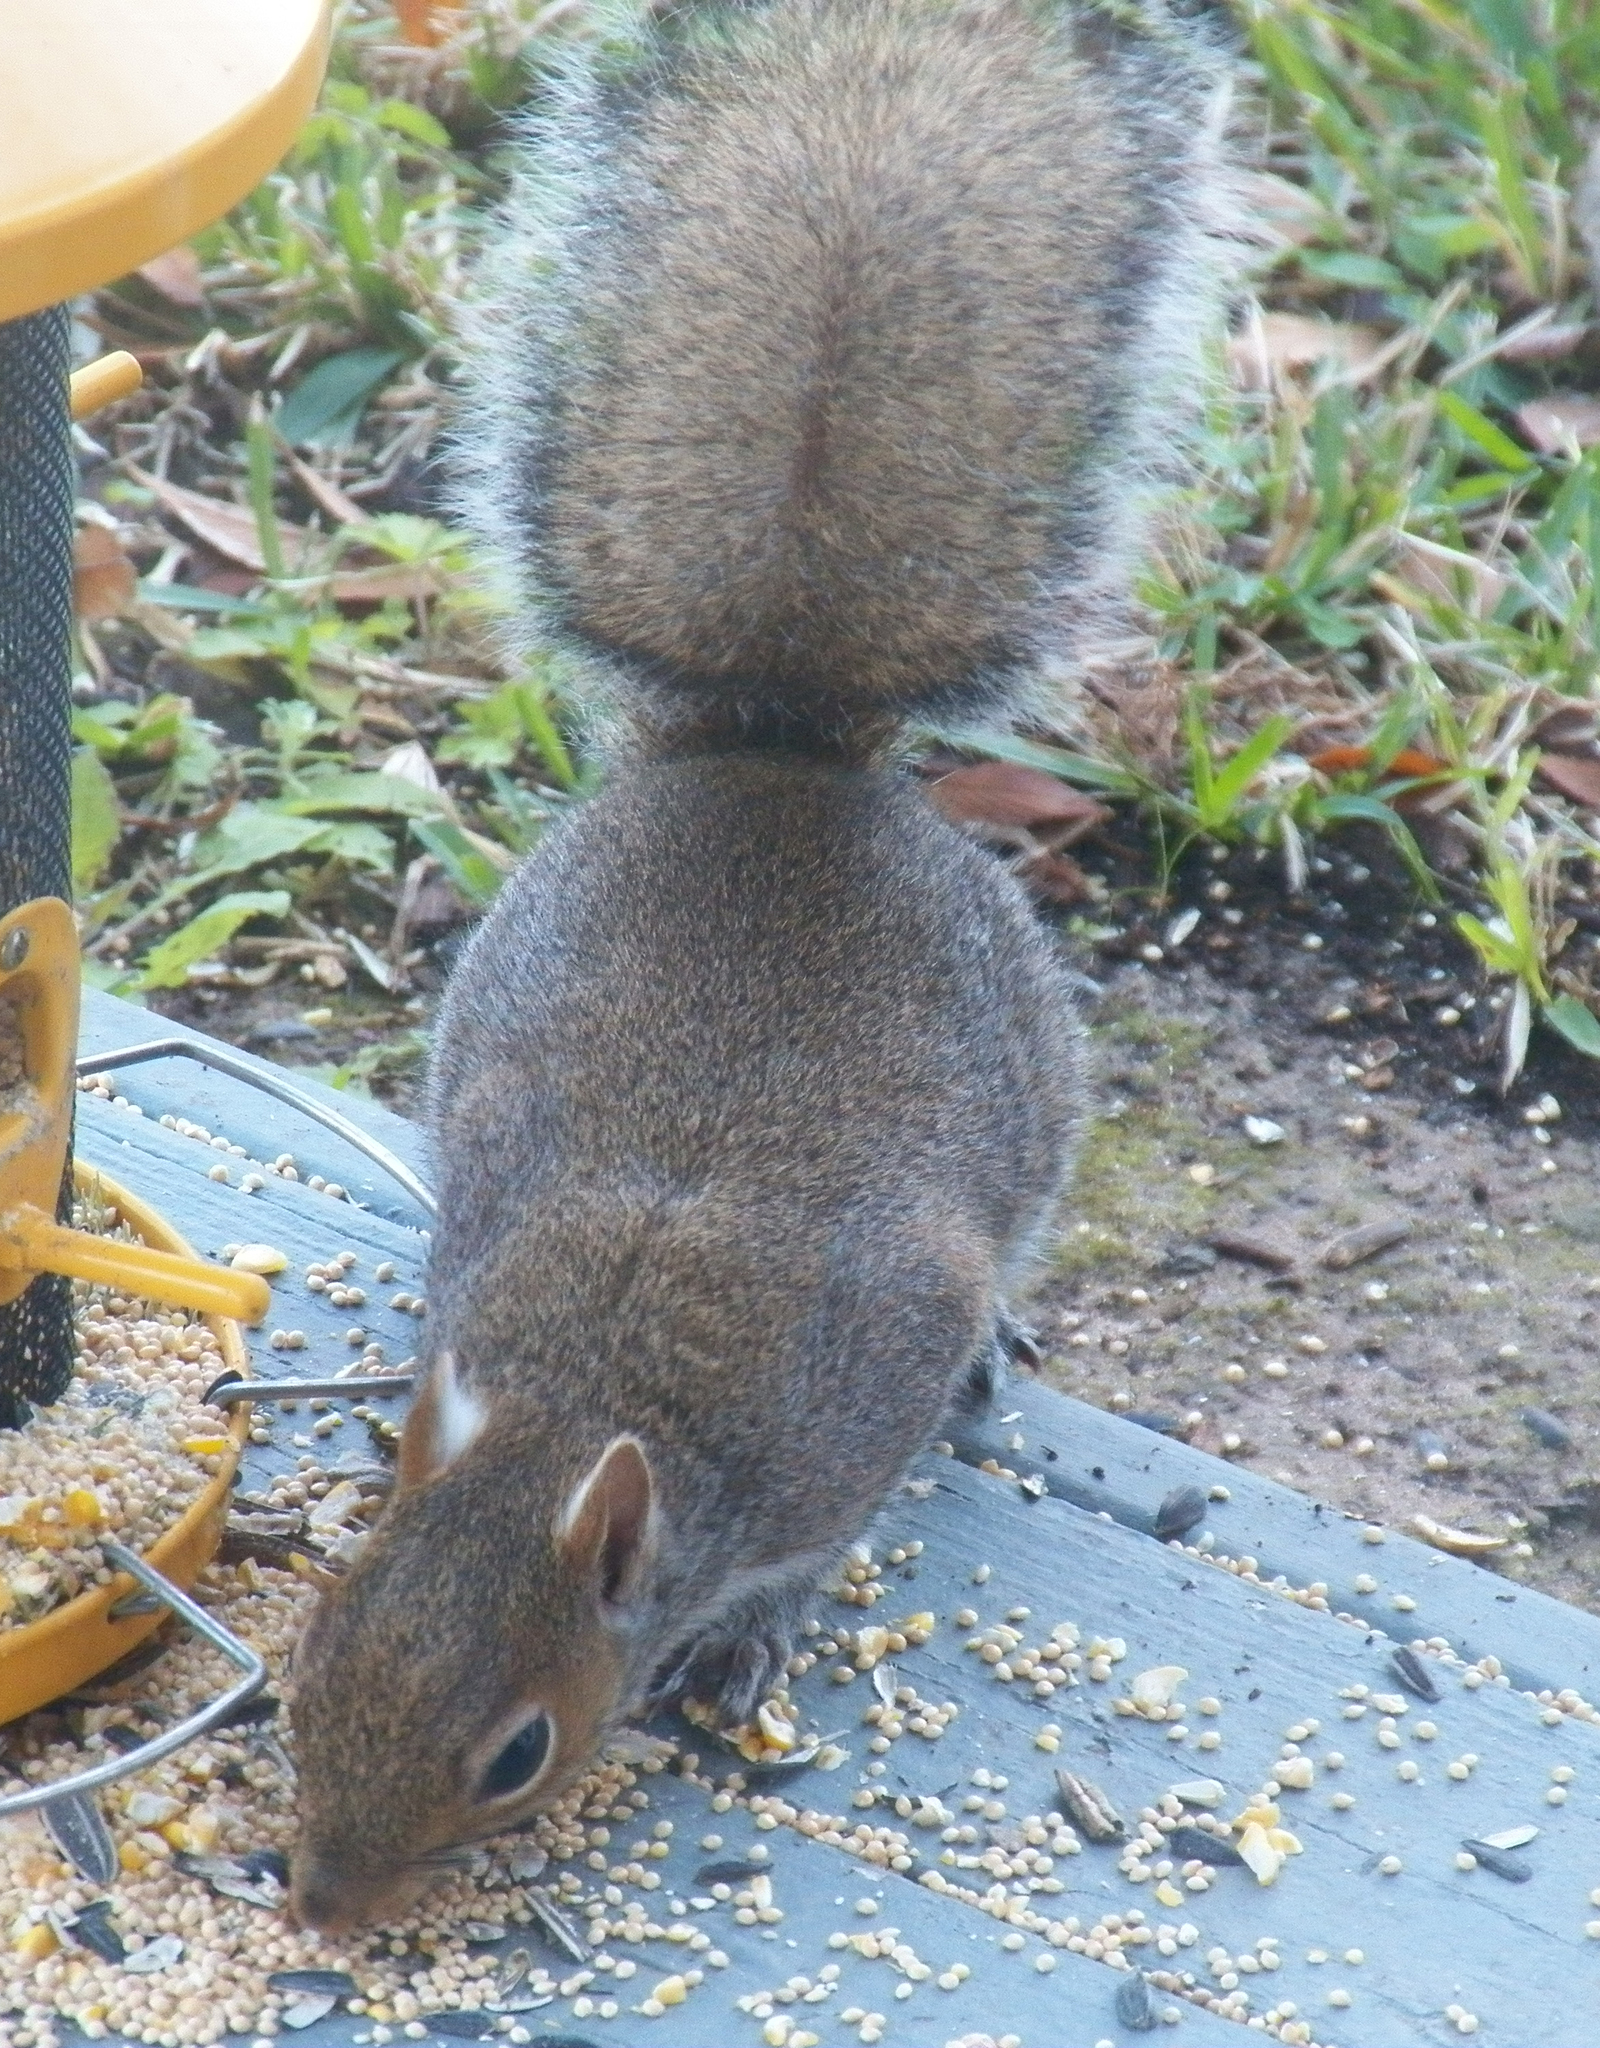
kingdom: Animalia
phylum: Chordata
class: Mammalia
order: Rodentia
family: Sciuridae
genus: Sciurus
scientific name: Sciurus carolinensis
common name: Eastern gray squirrel
